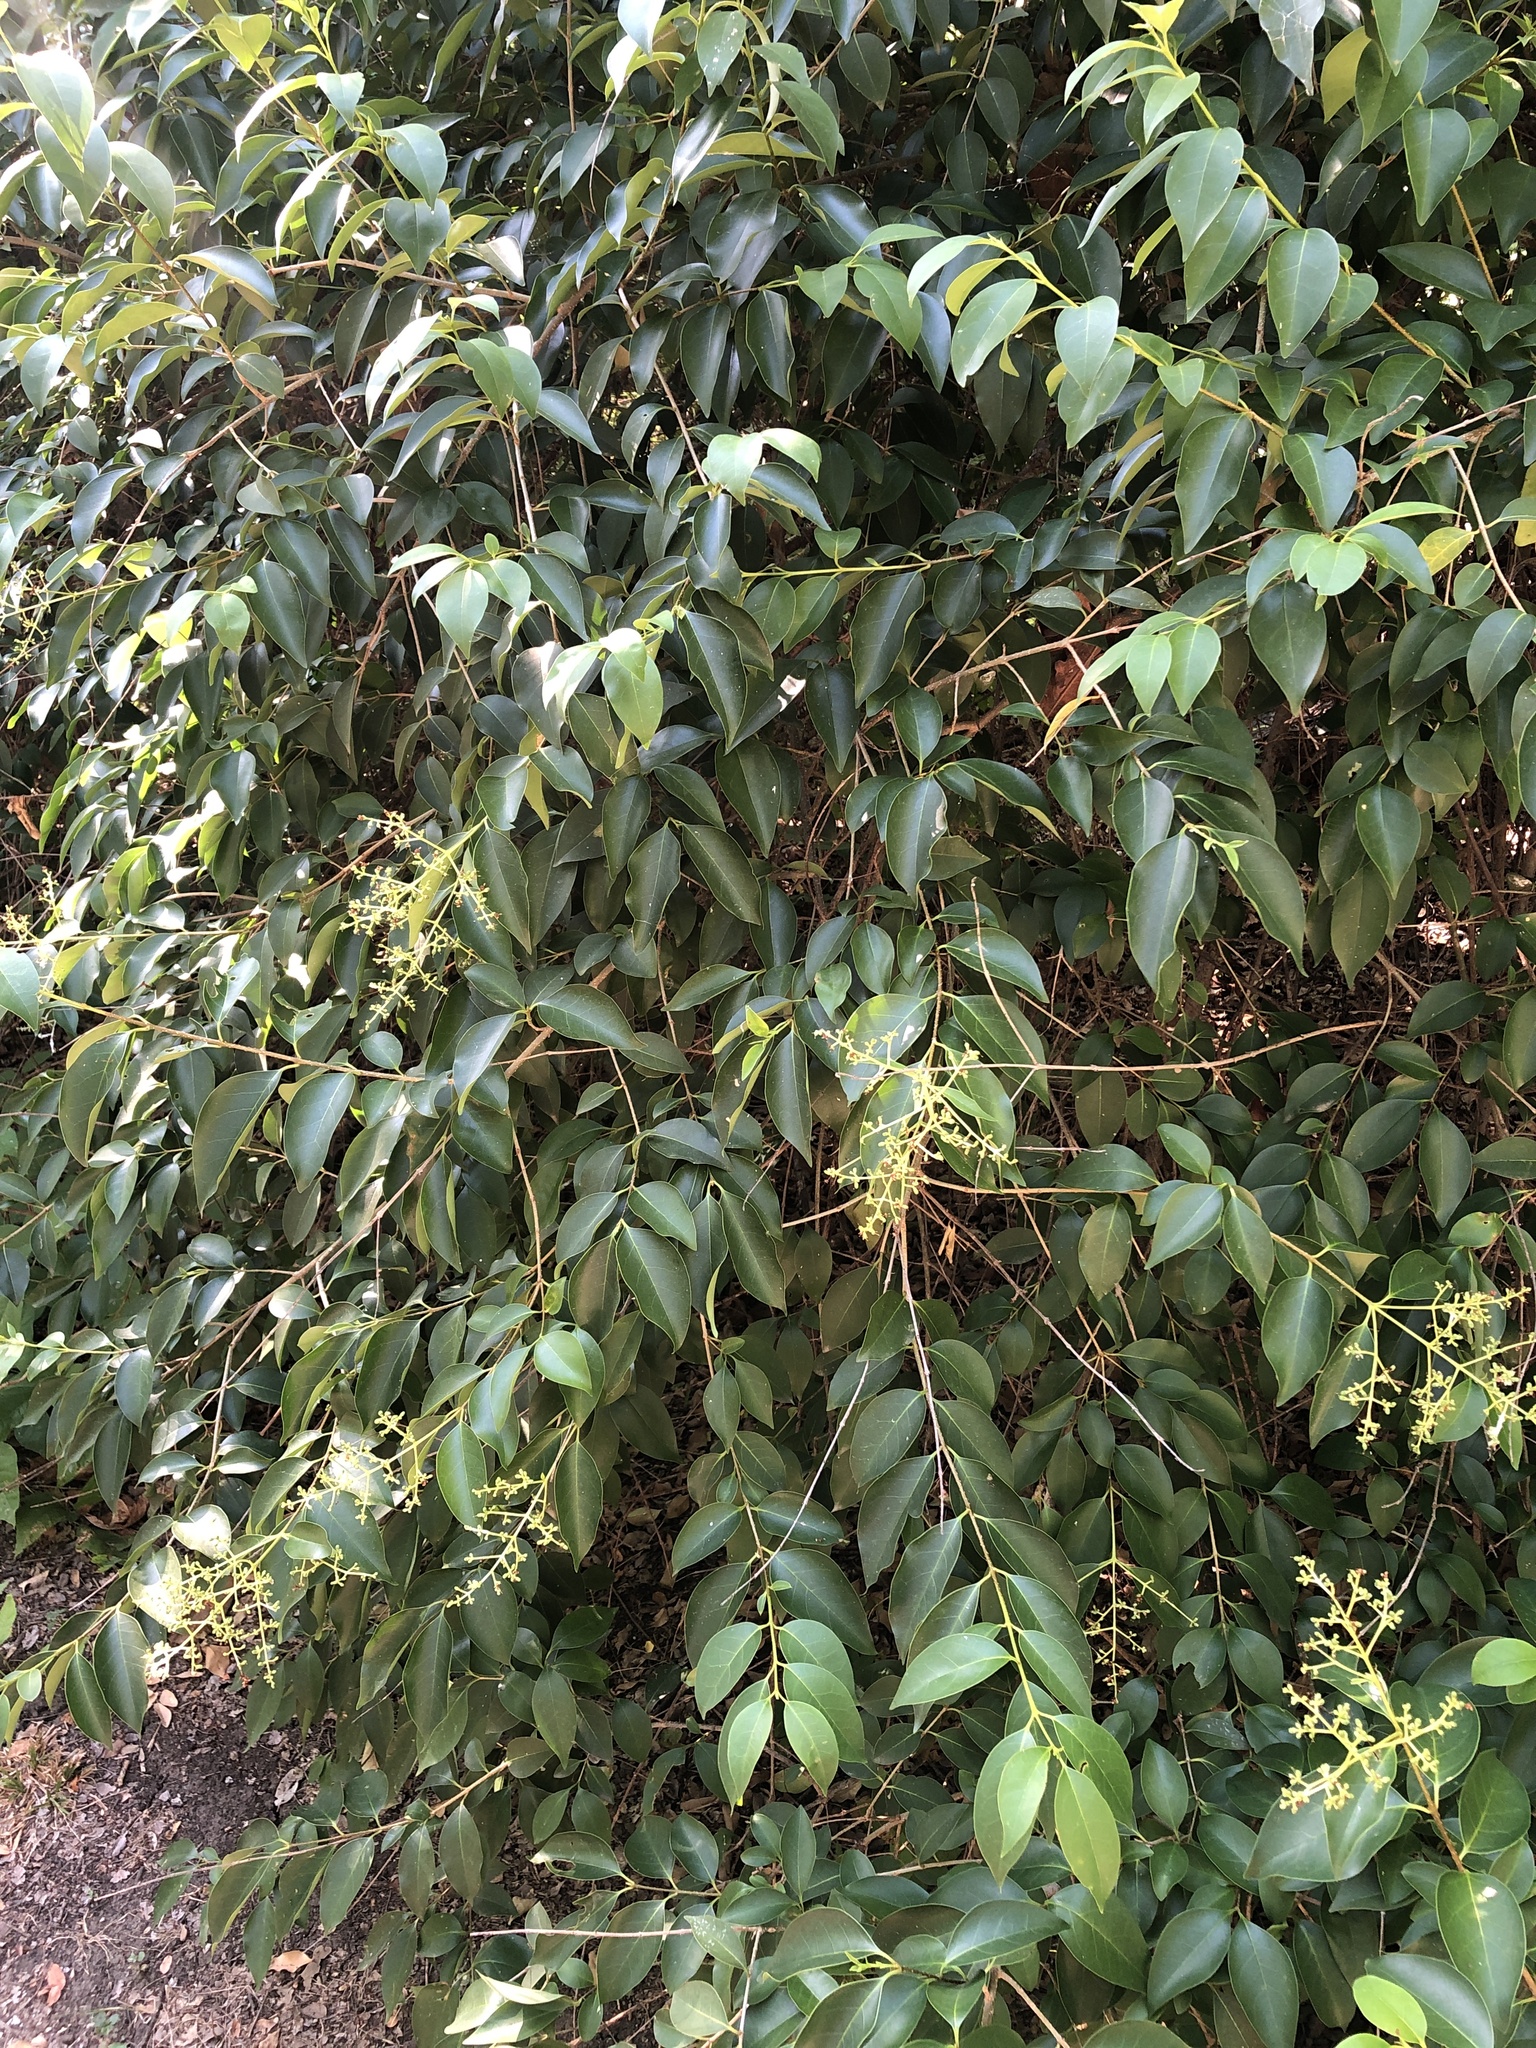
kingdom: Plantae
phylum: Tracheophyta
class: Magnoliopsida
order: Lamiales
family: Oleaceae
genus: Ligustrum
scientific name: Ligustrum lucidum
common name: Glossy privet
